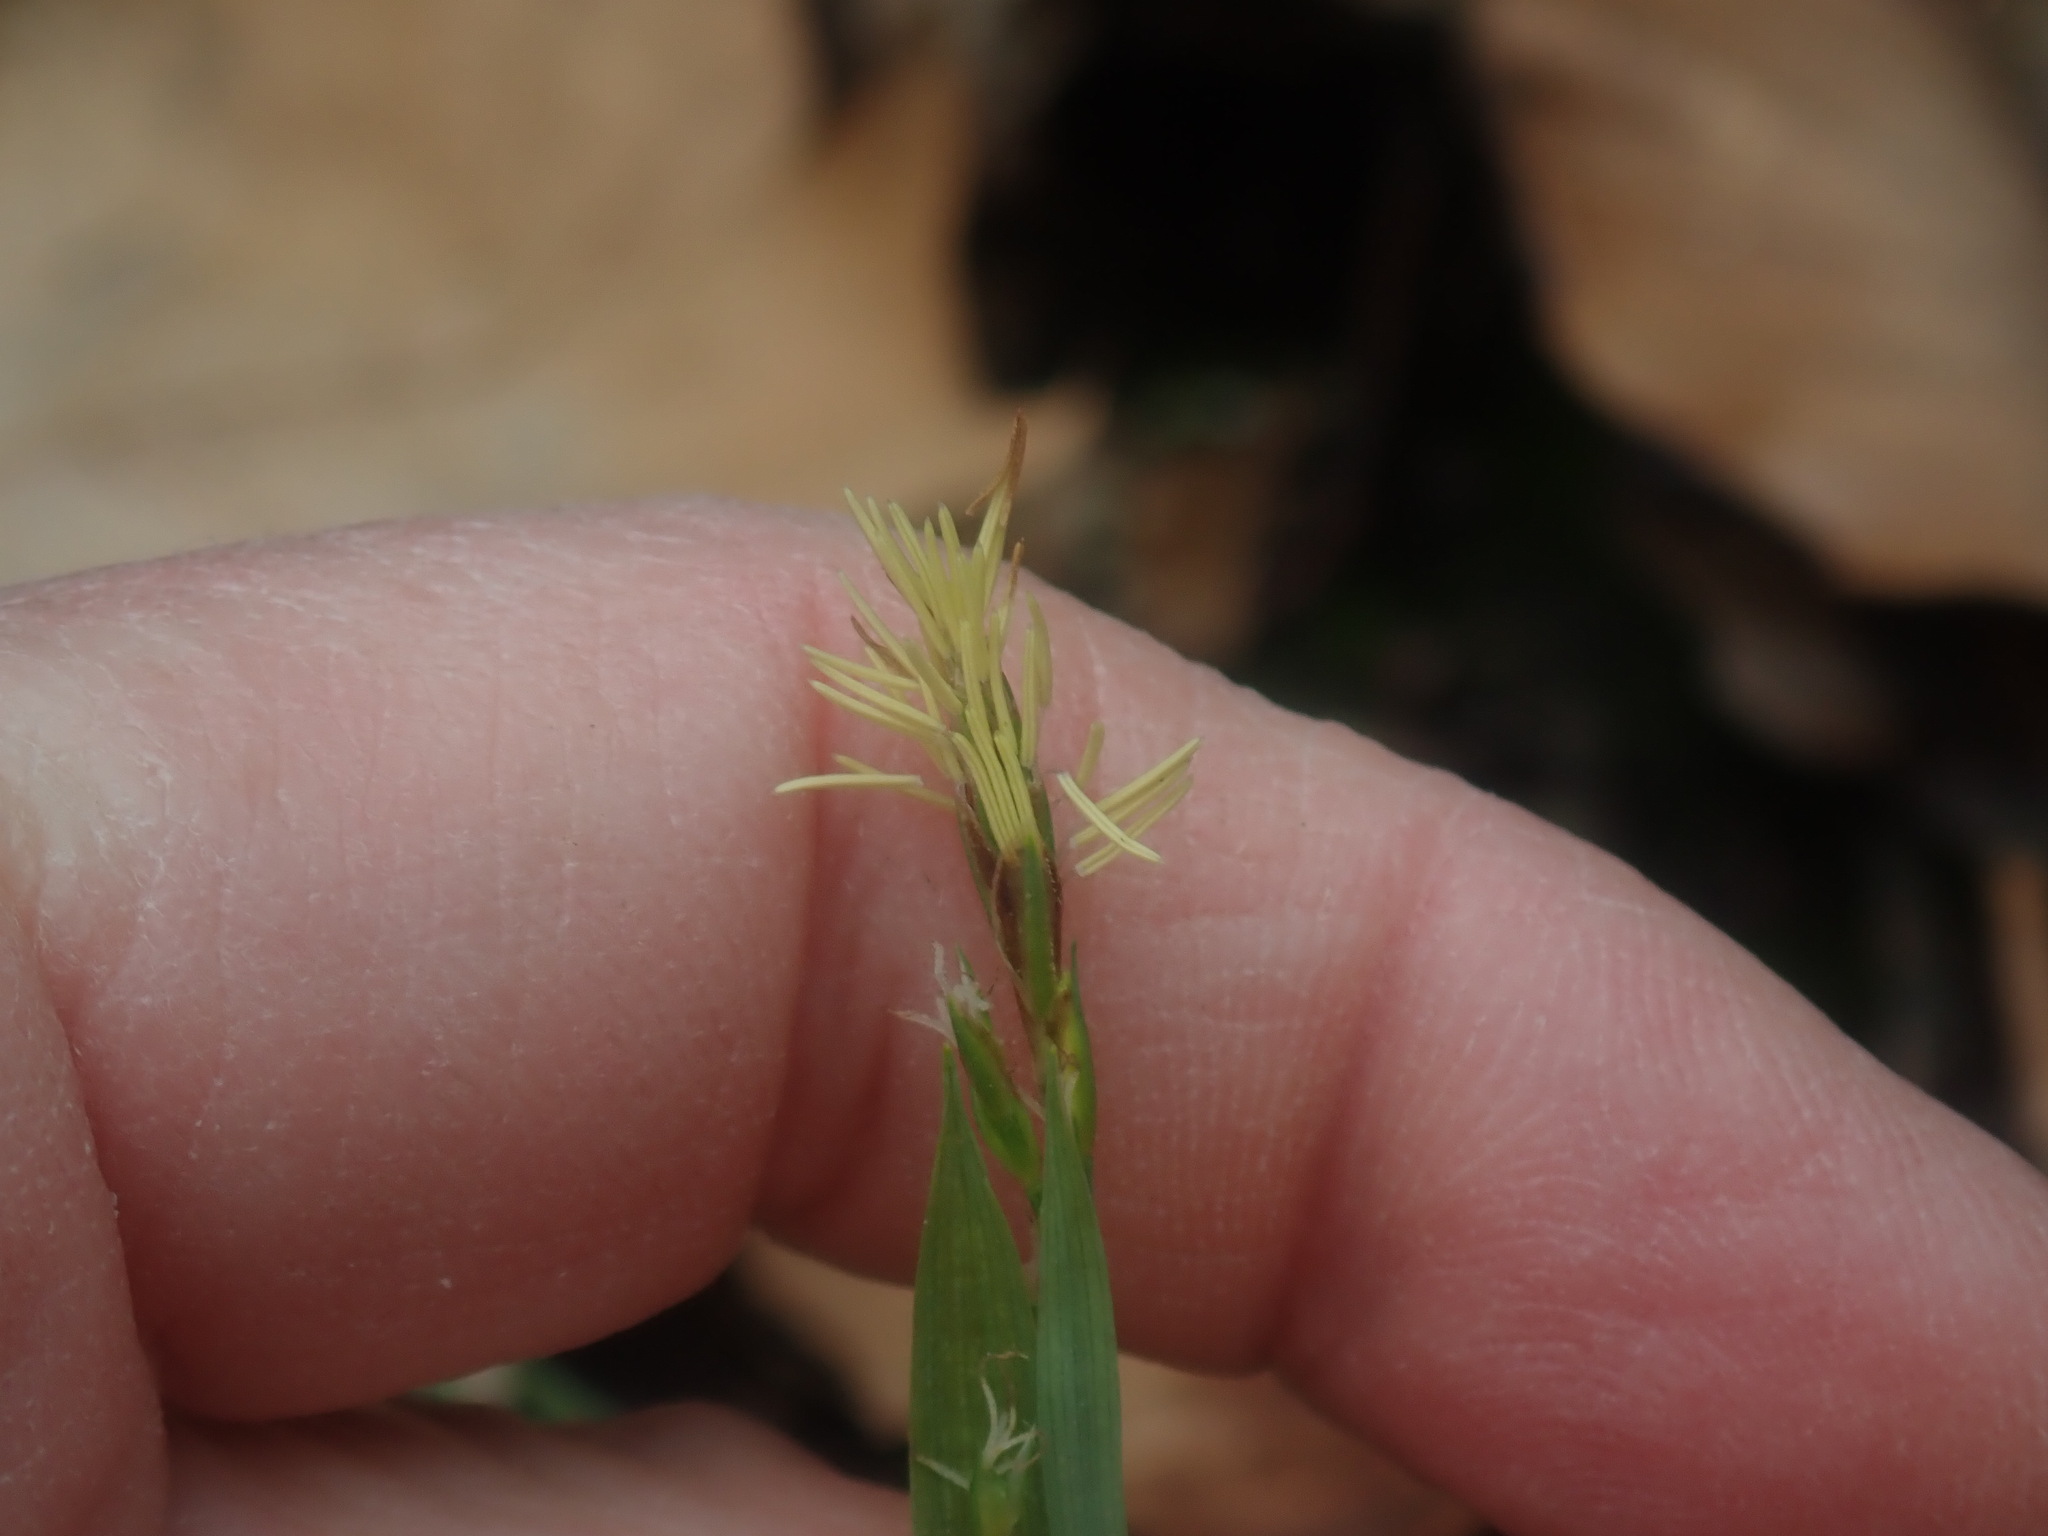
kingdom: Plantae
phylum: Tracheophyta
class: Liliopsida
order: Poales
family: Cyperaceae
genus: Carex
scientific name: Carex platyphylla
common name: Broad-leaved sedge
